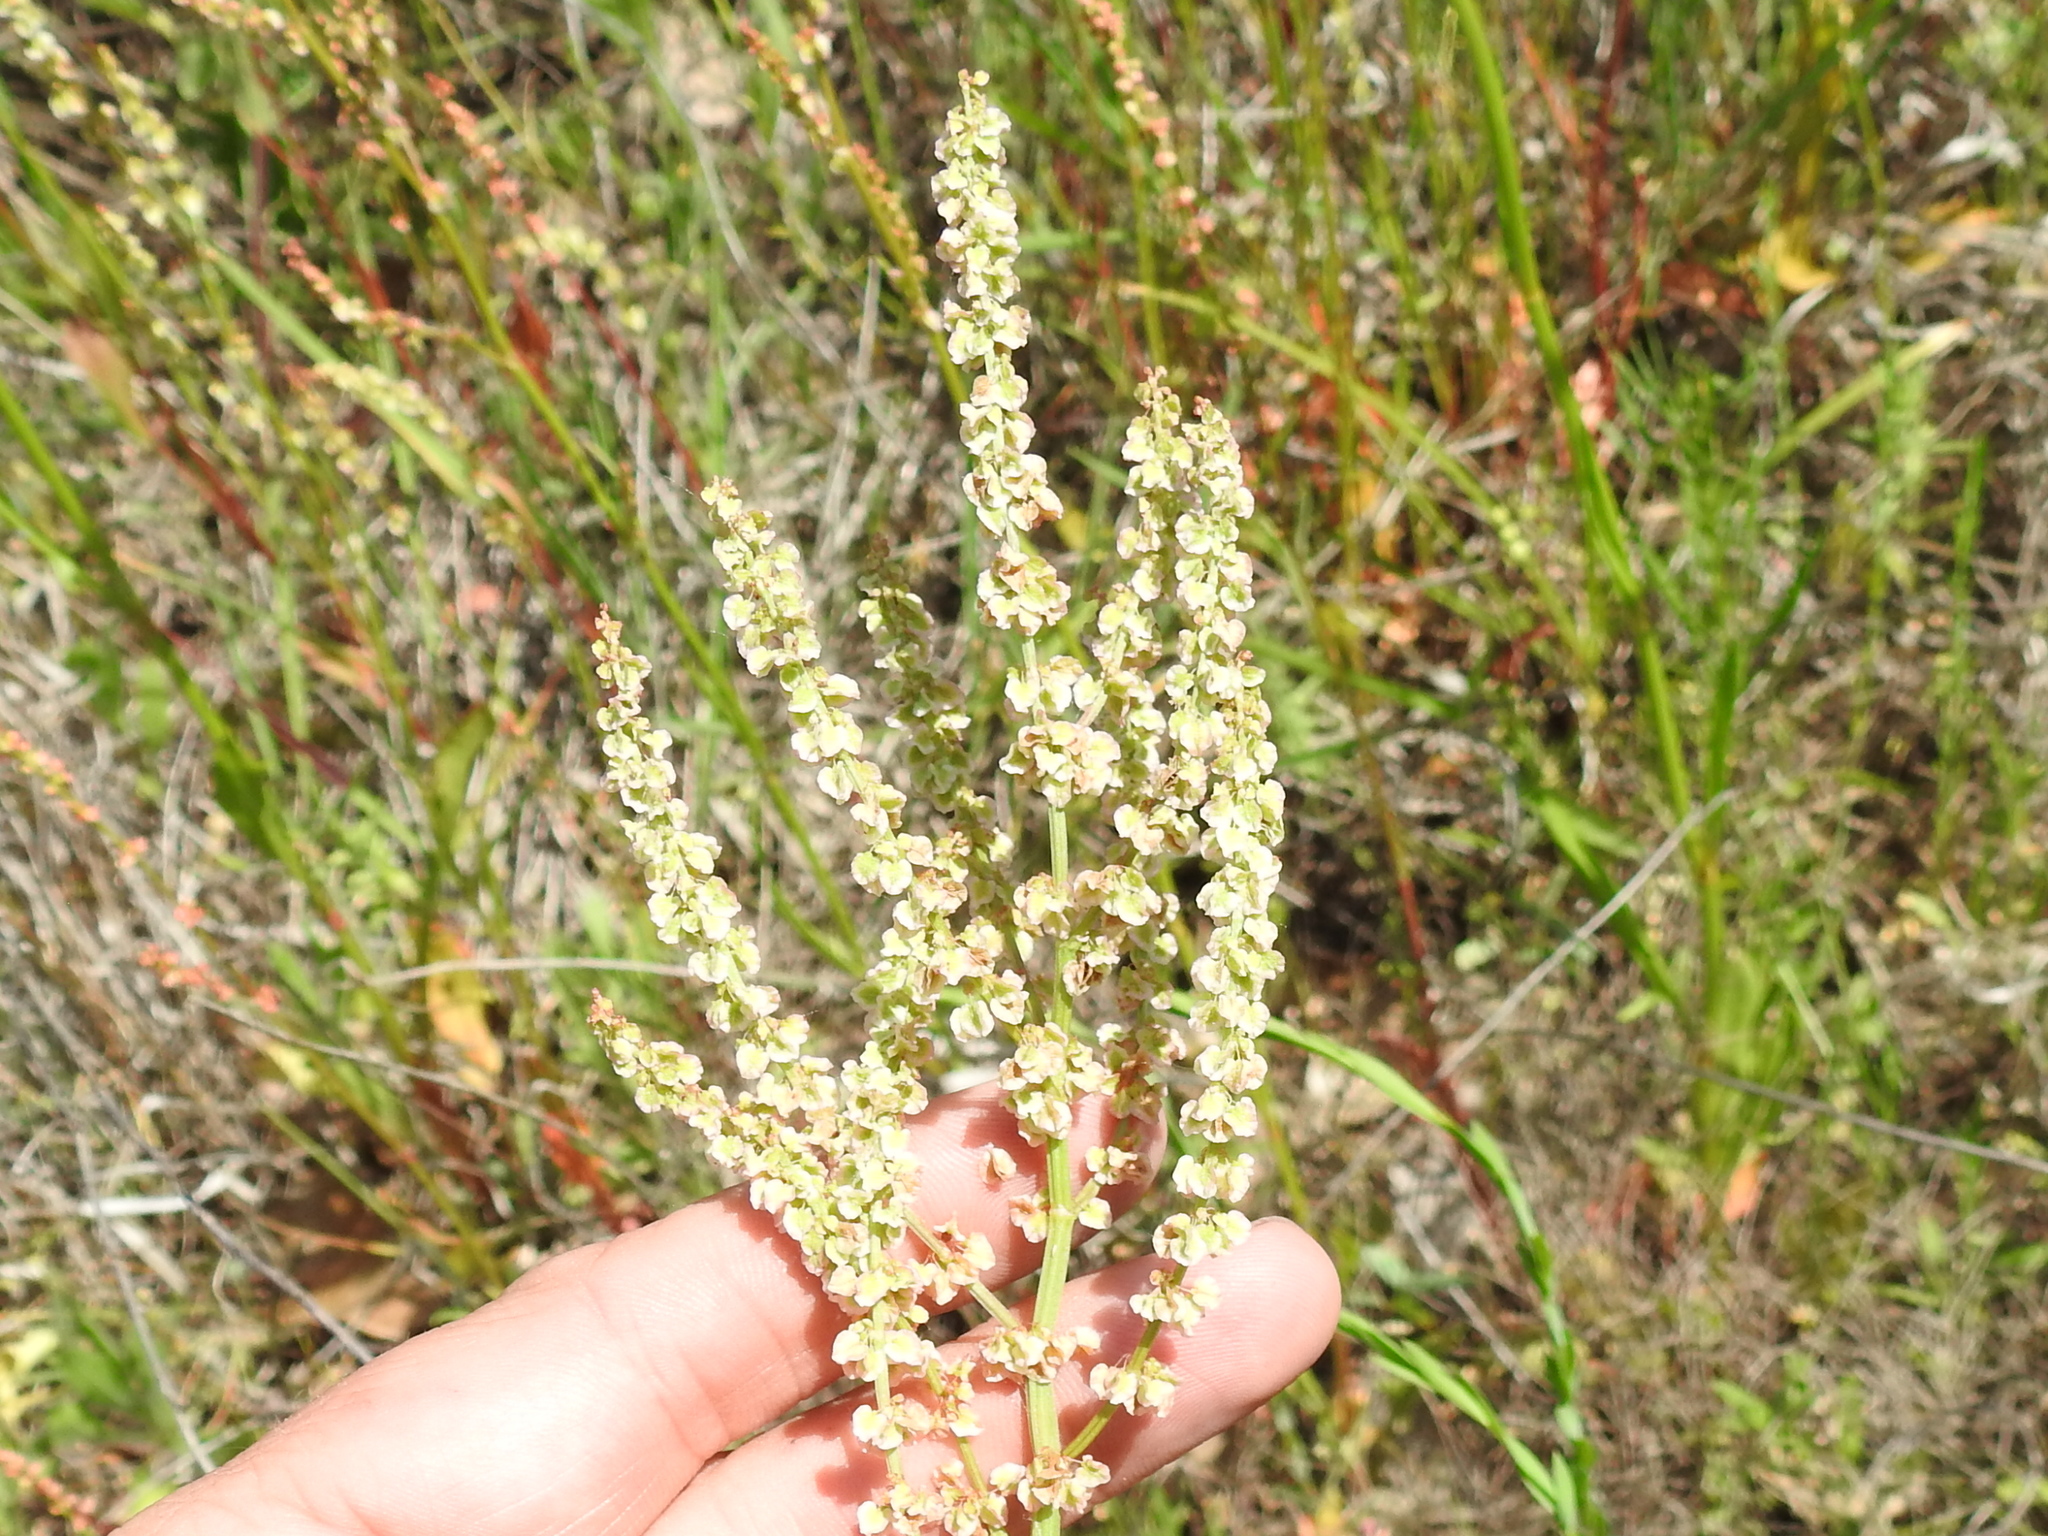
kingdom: Plantae
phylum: Tracheophyta
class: Magnoliopsida
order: Caryophyllales
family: Polygonaceae
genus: Rumex
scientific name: Rumex hastatulus
